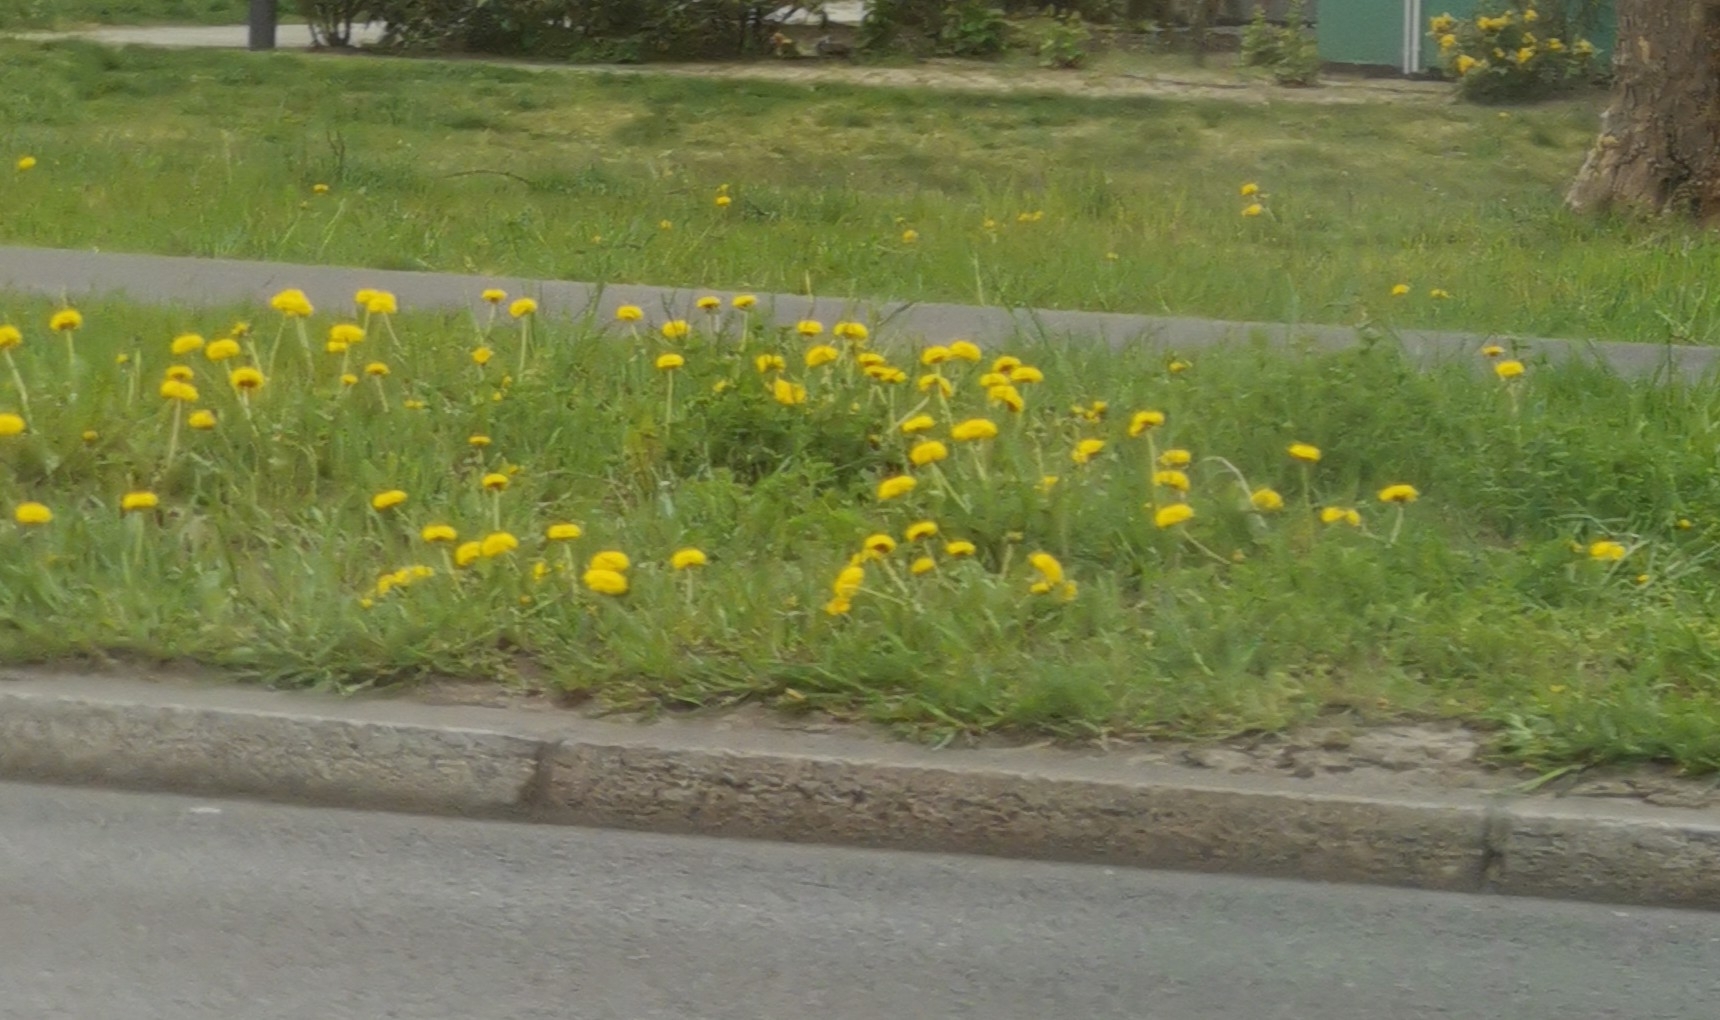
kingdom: Plantae
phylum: Tracheophyta
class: Magnoliopsida
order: Asterales
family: Asteraceae
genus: Taraxacum
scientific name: Taraxacum
